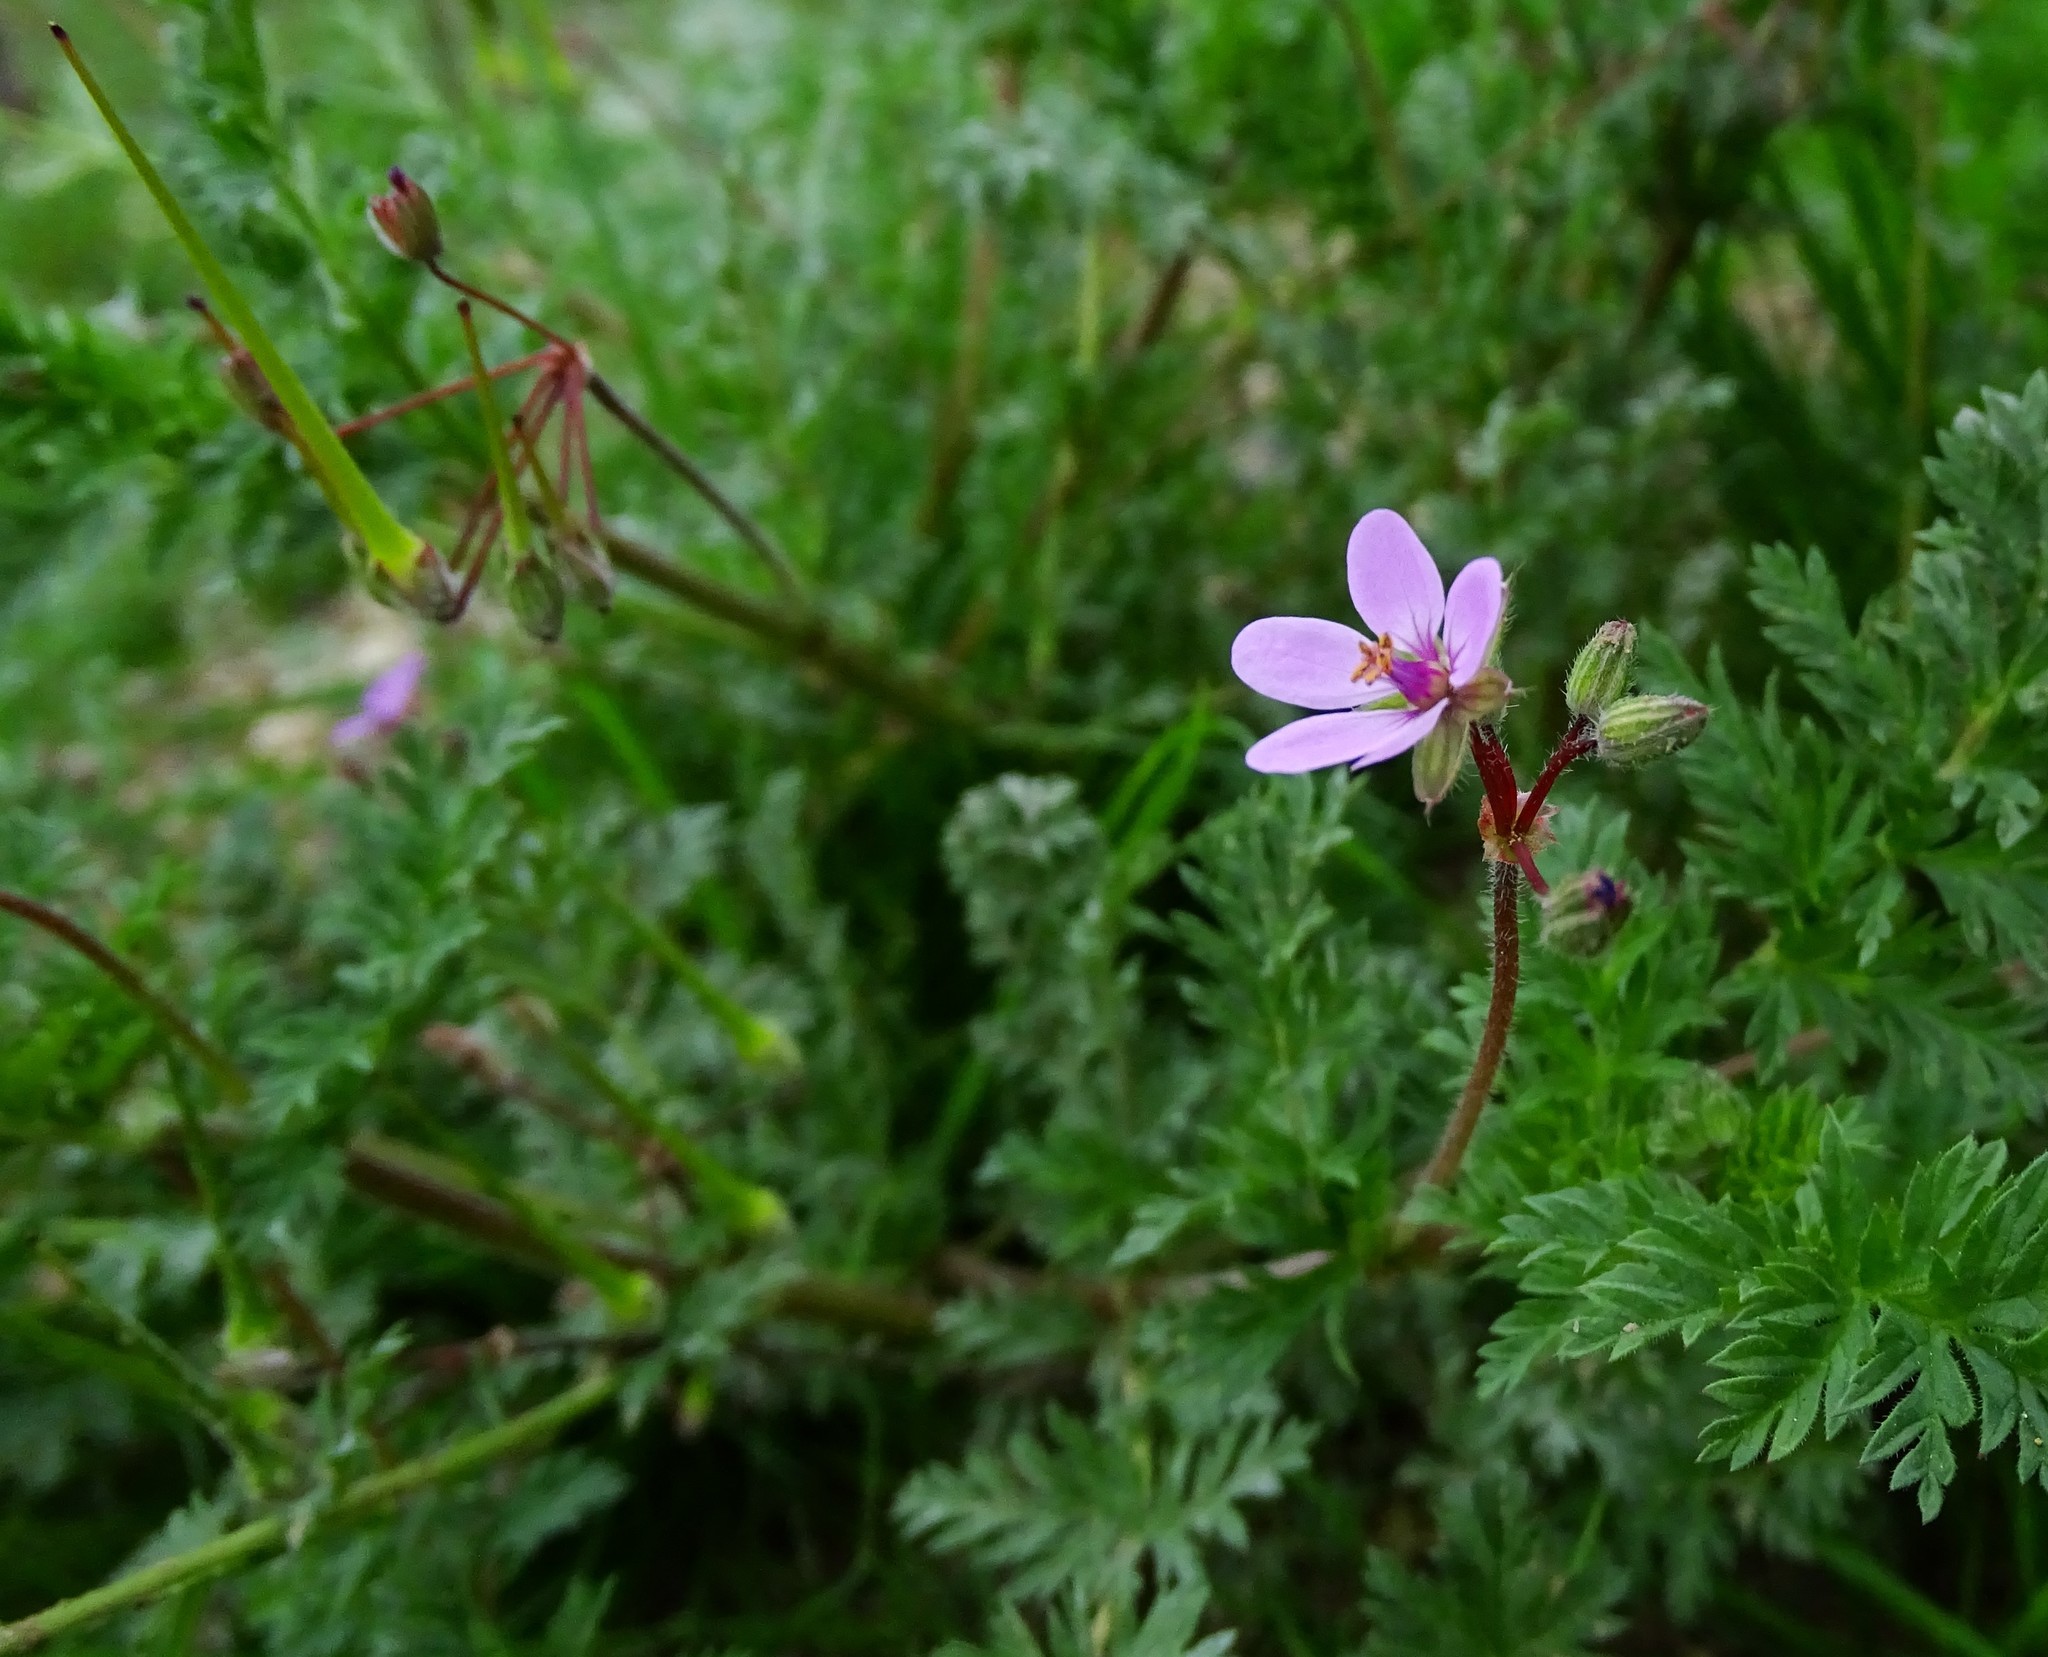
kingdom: Plantae
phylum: Tracheophyta
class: Magnoliopsida
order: Geraniales
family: Geraniaceae
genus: Erodium
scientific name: Erodium cicutarium
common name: Common stork's-bill
